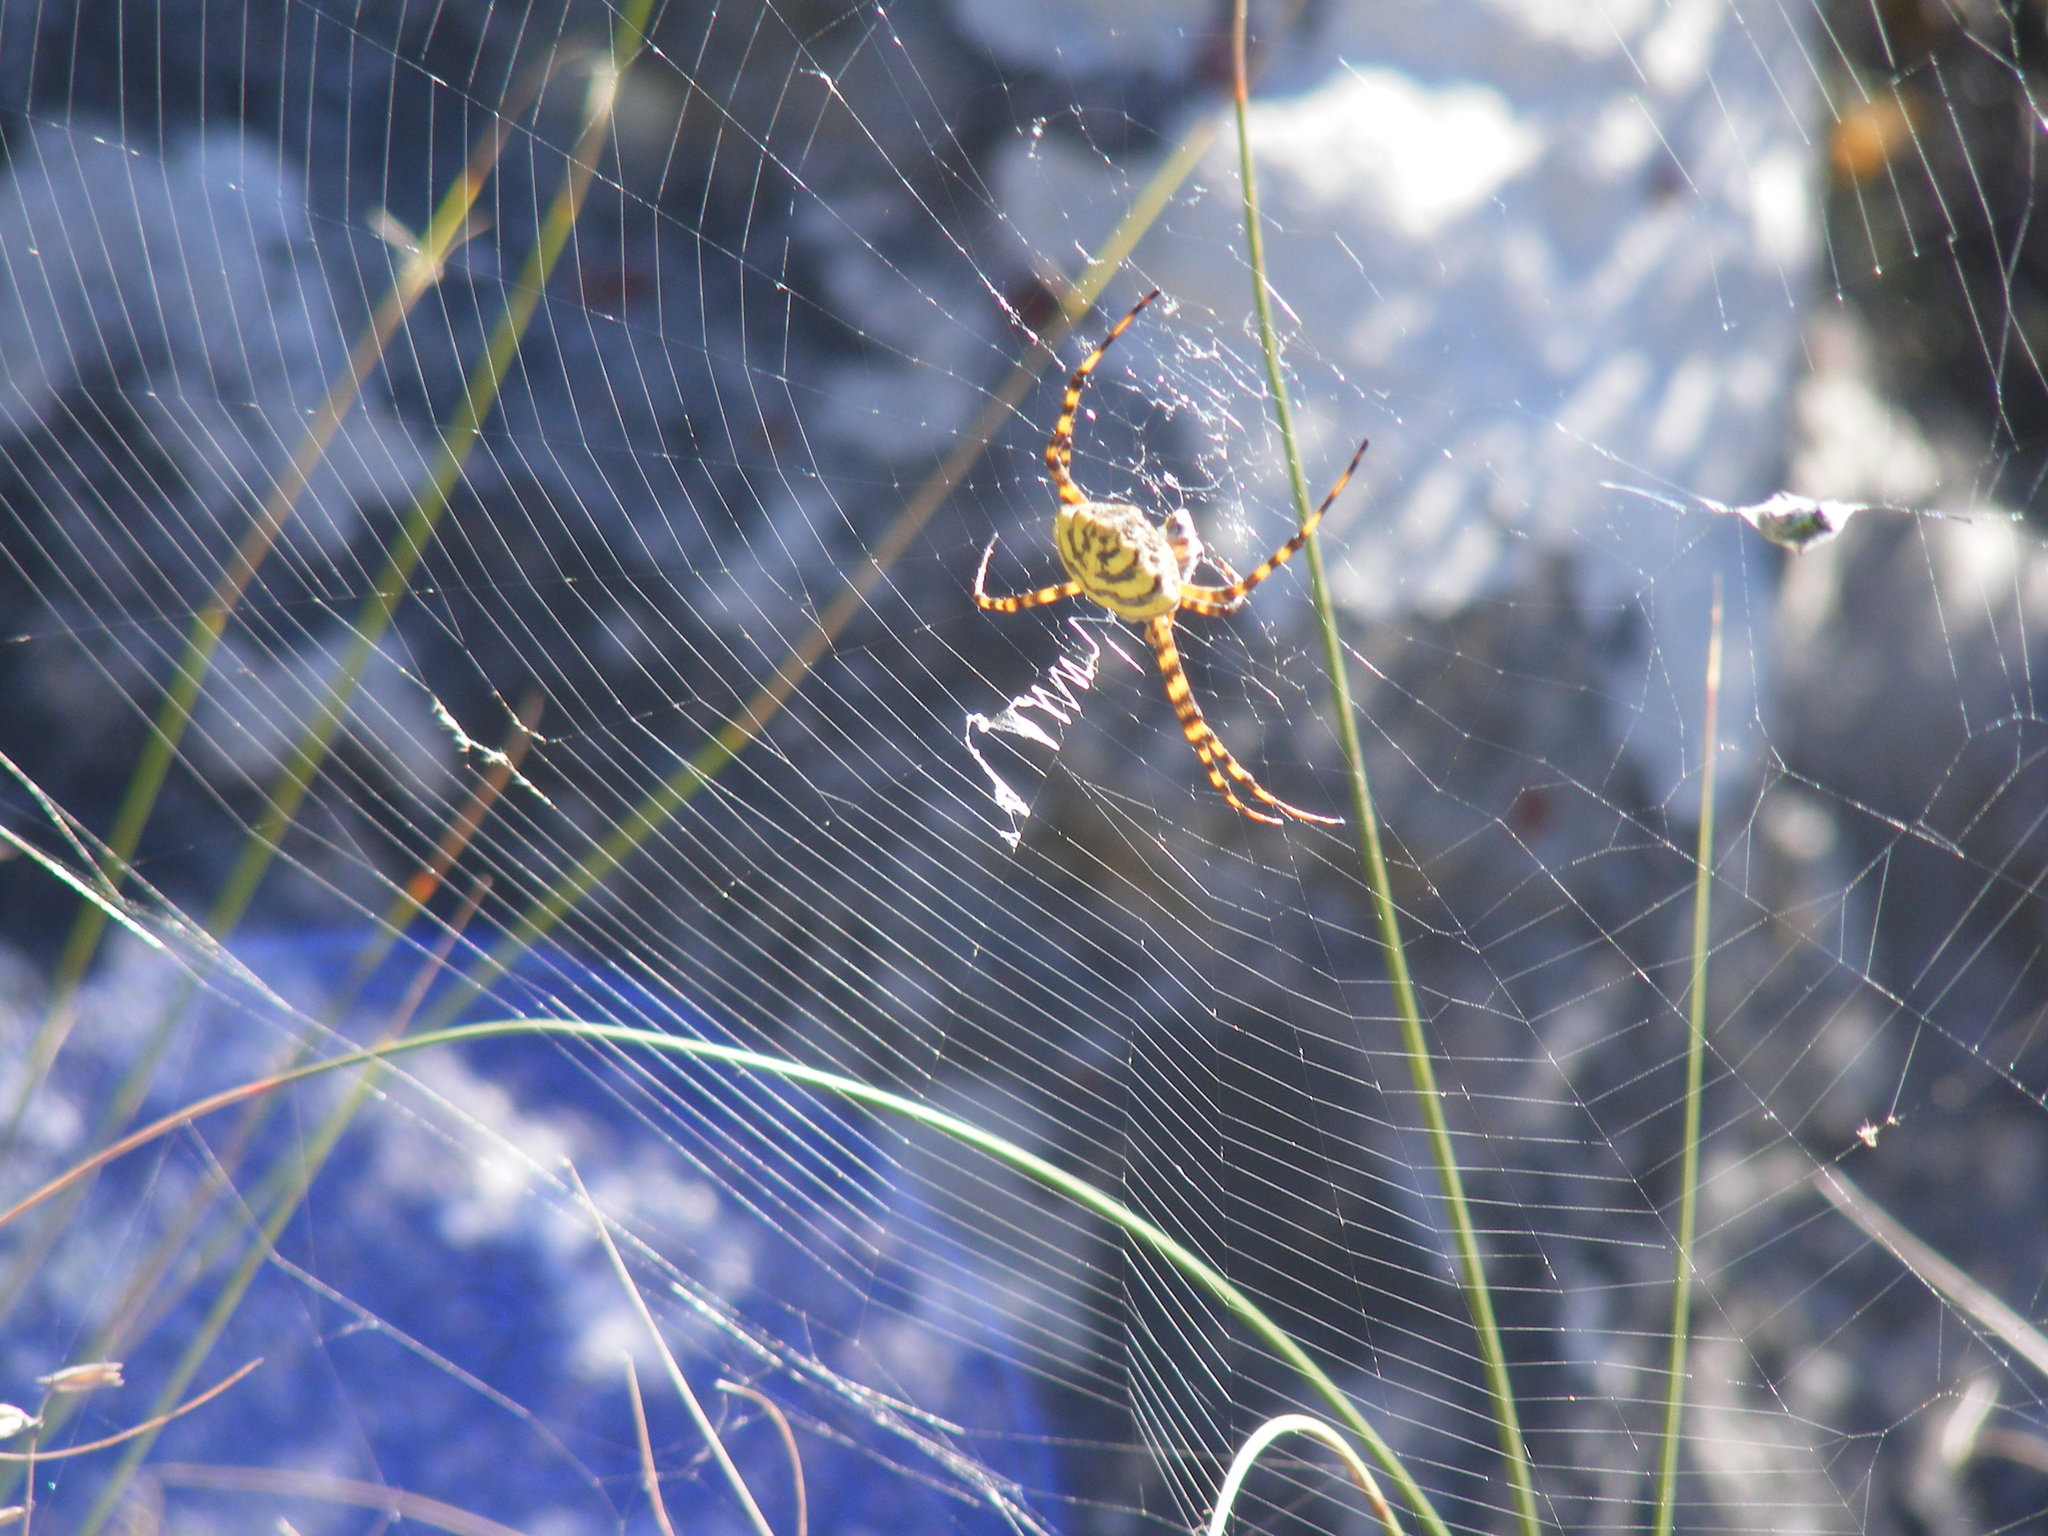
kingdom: Animalia
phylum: Arthropoda
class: Arachnida
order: Araneae
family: Araneidae
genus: Argiope
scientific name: Argiope australis
